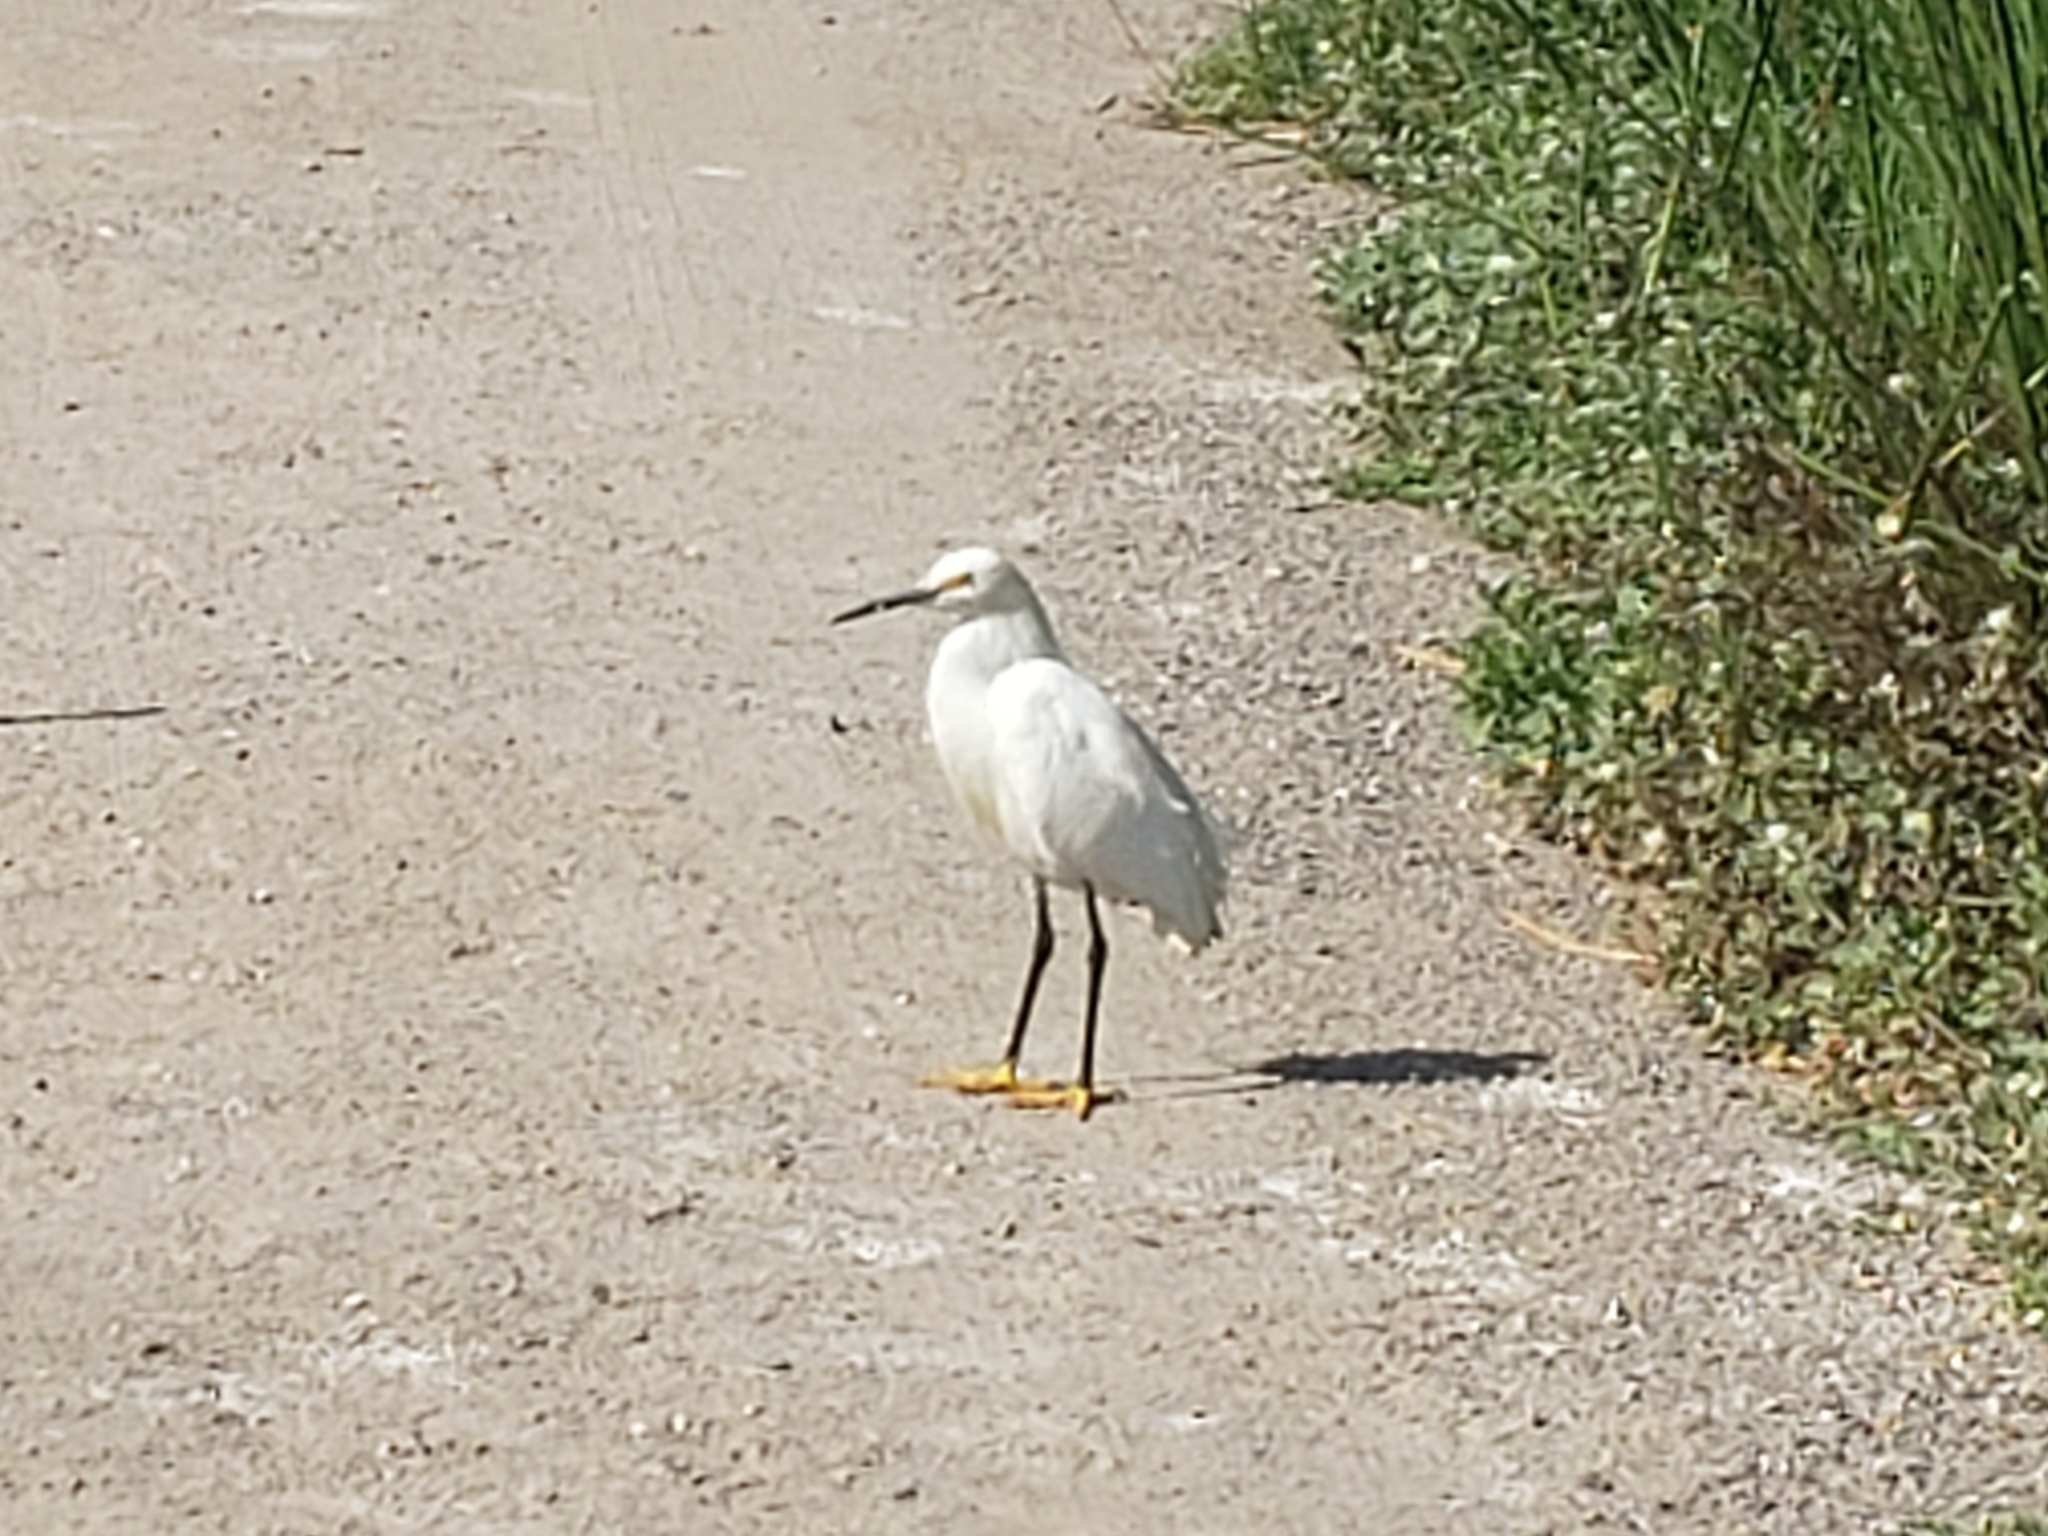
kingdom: Animalia
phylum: Chordata
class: Aves
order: Pelecaniformes
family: Ardeidae
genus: Egretta
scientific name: Egretta thula
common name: Snowy egret
